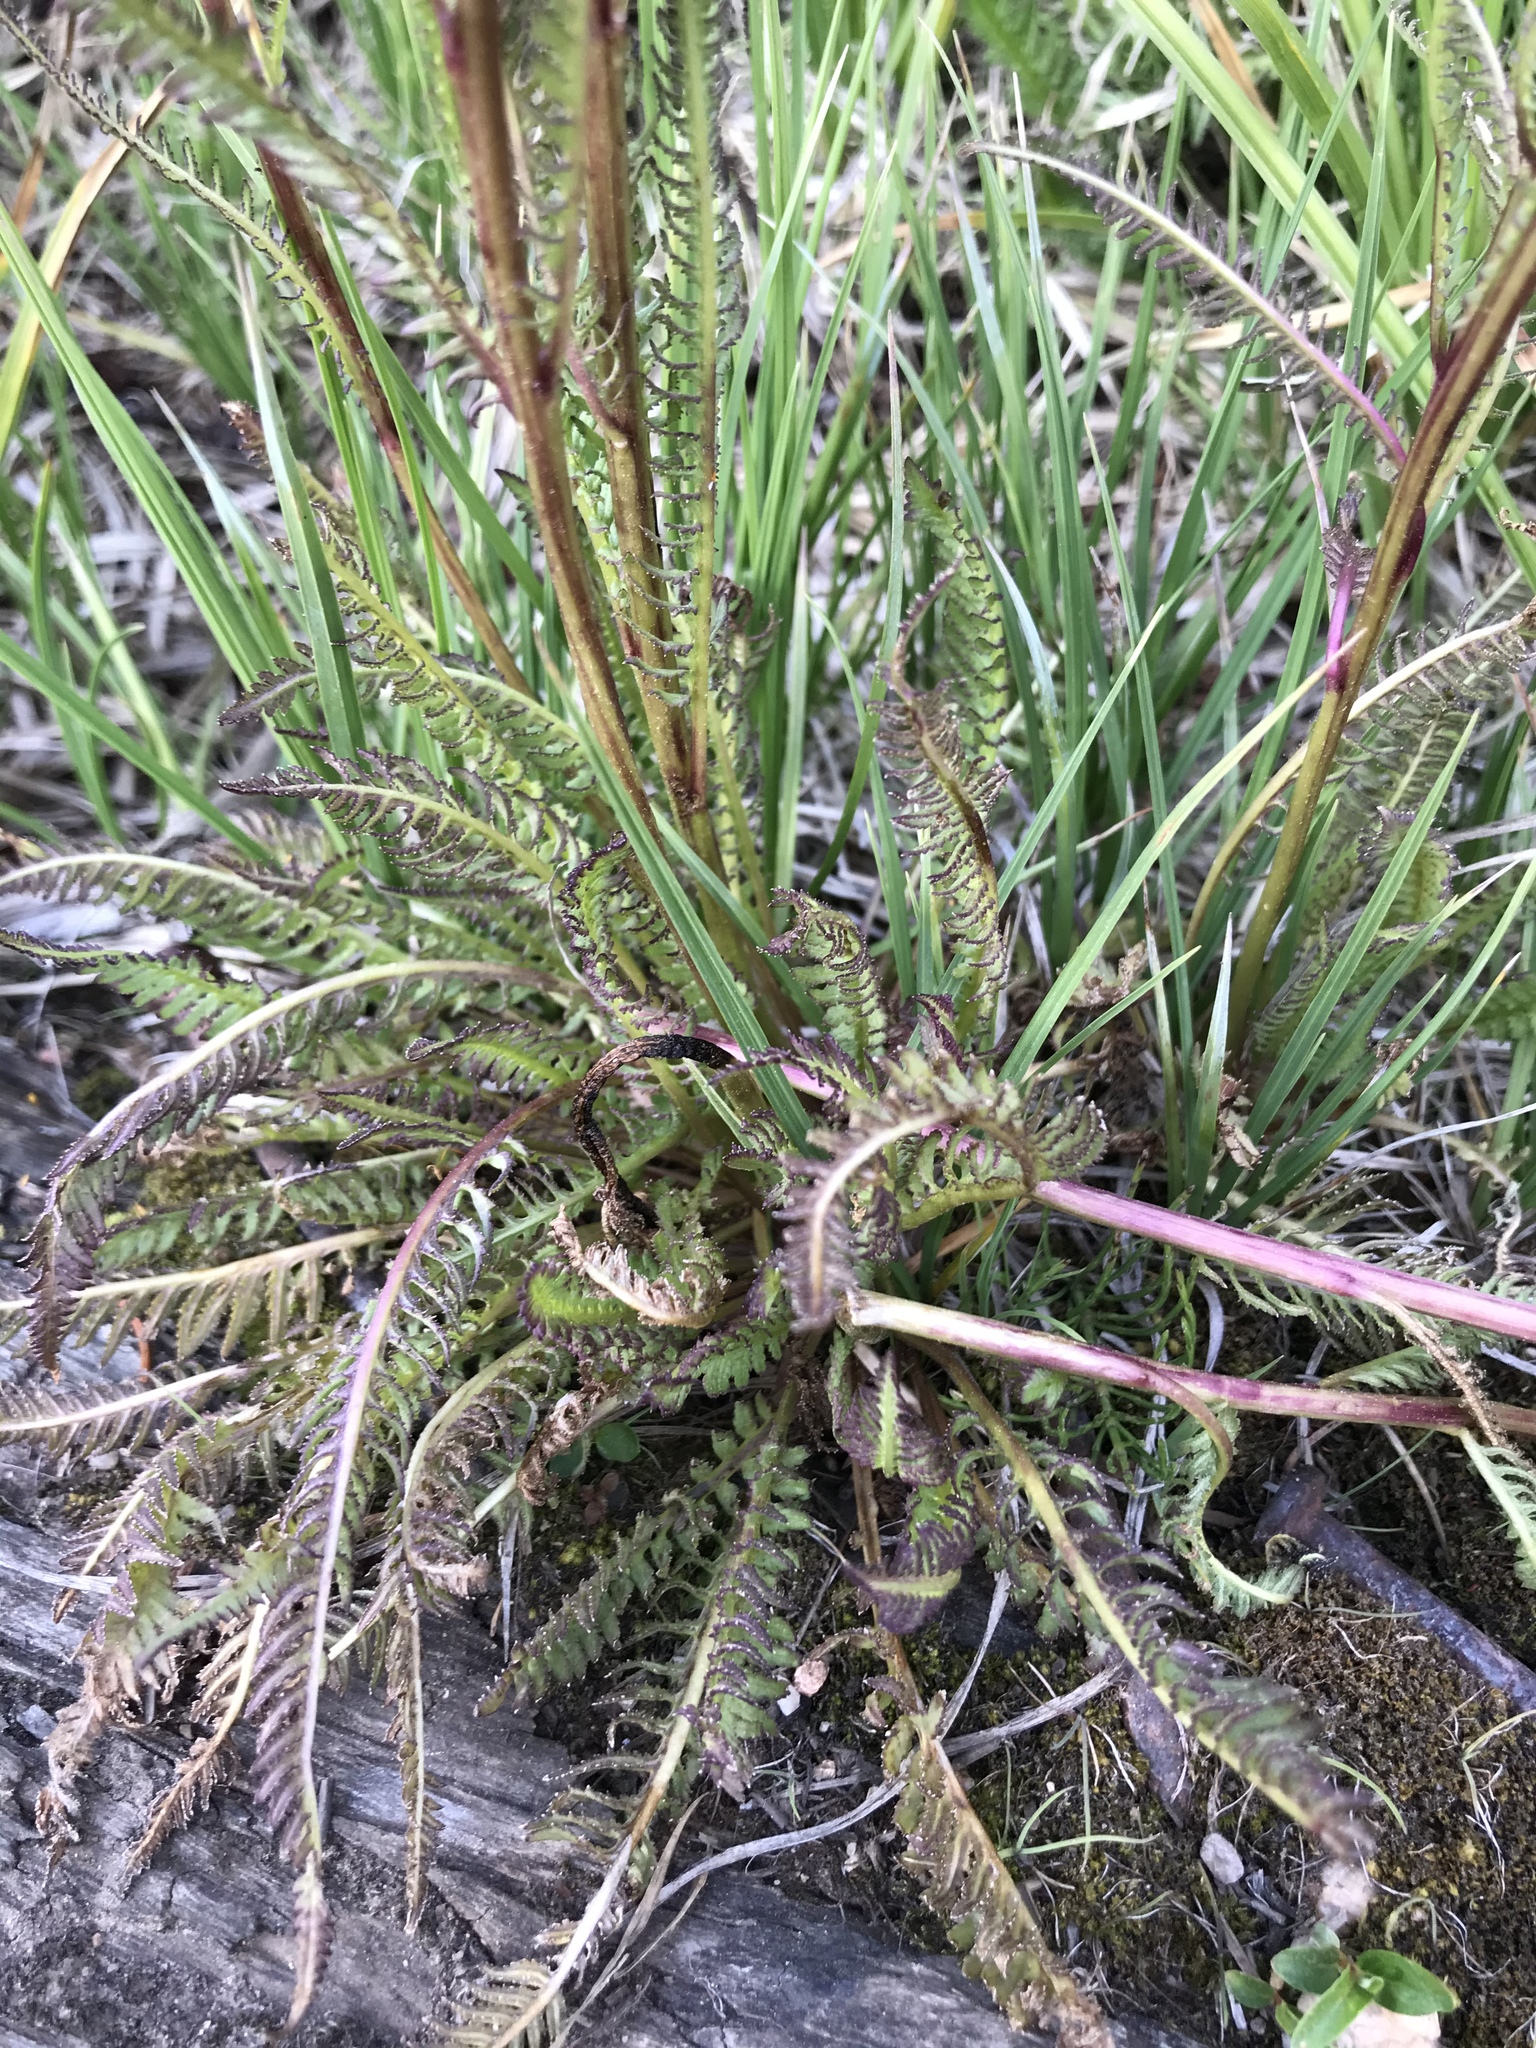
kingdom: Plantae
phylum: Tracheophyta
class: Magnoliopsida
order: Lamiales
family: Orobanchaceae
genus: Pedicularis
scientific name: Pedicularis groenlandica
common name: Elephant's-head
